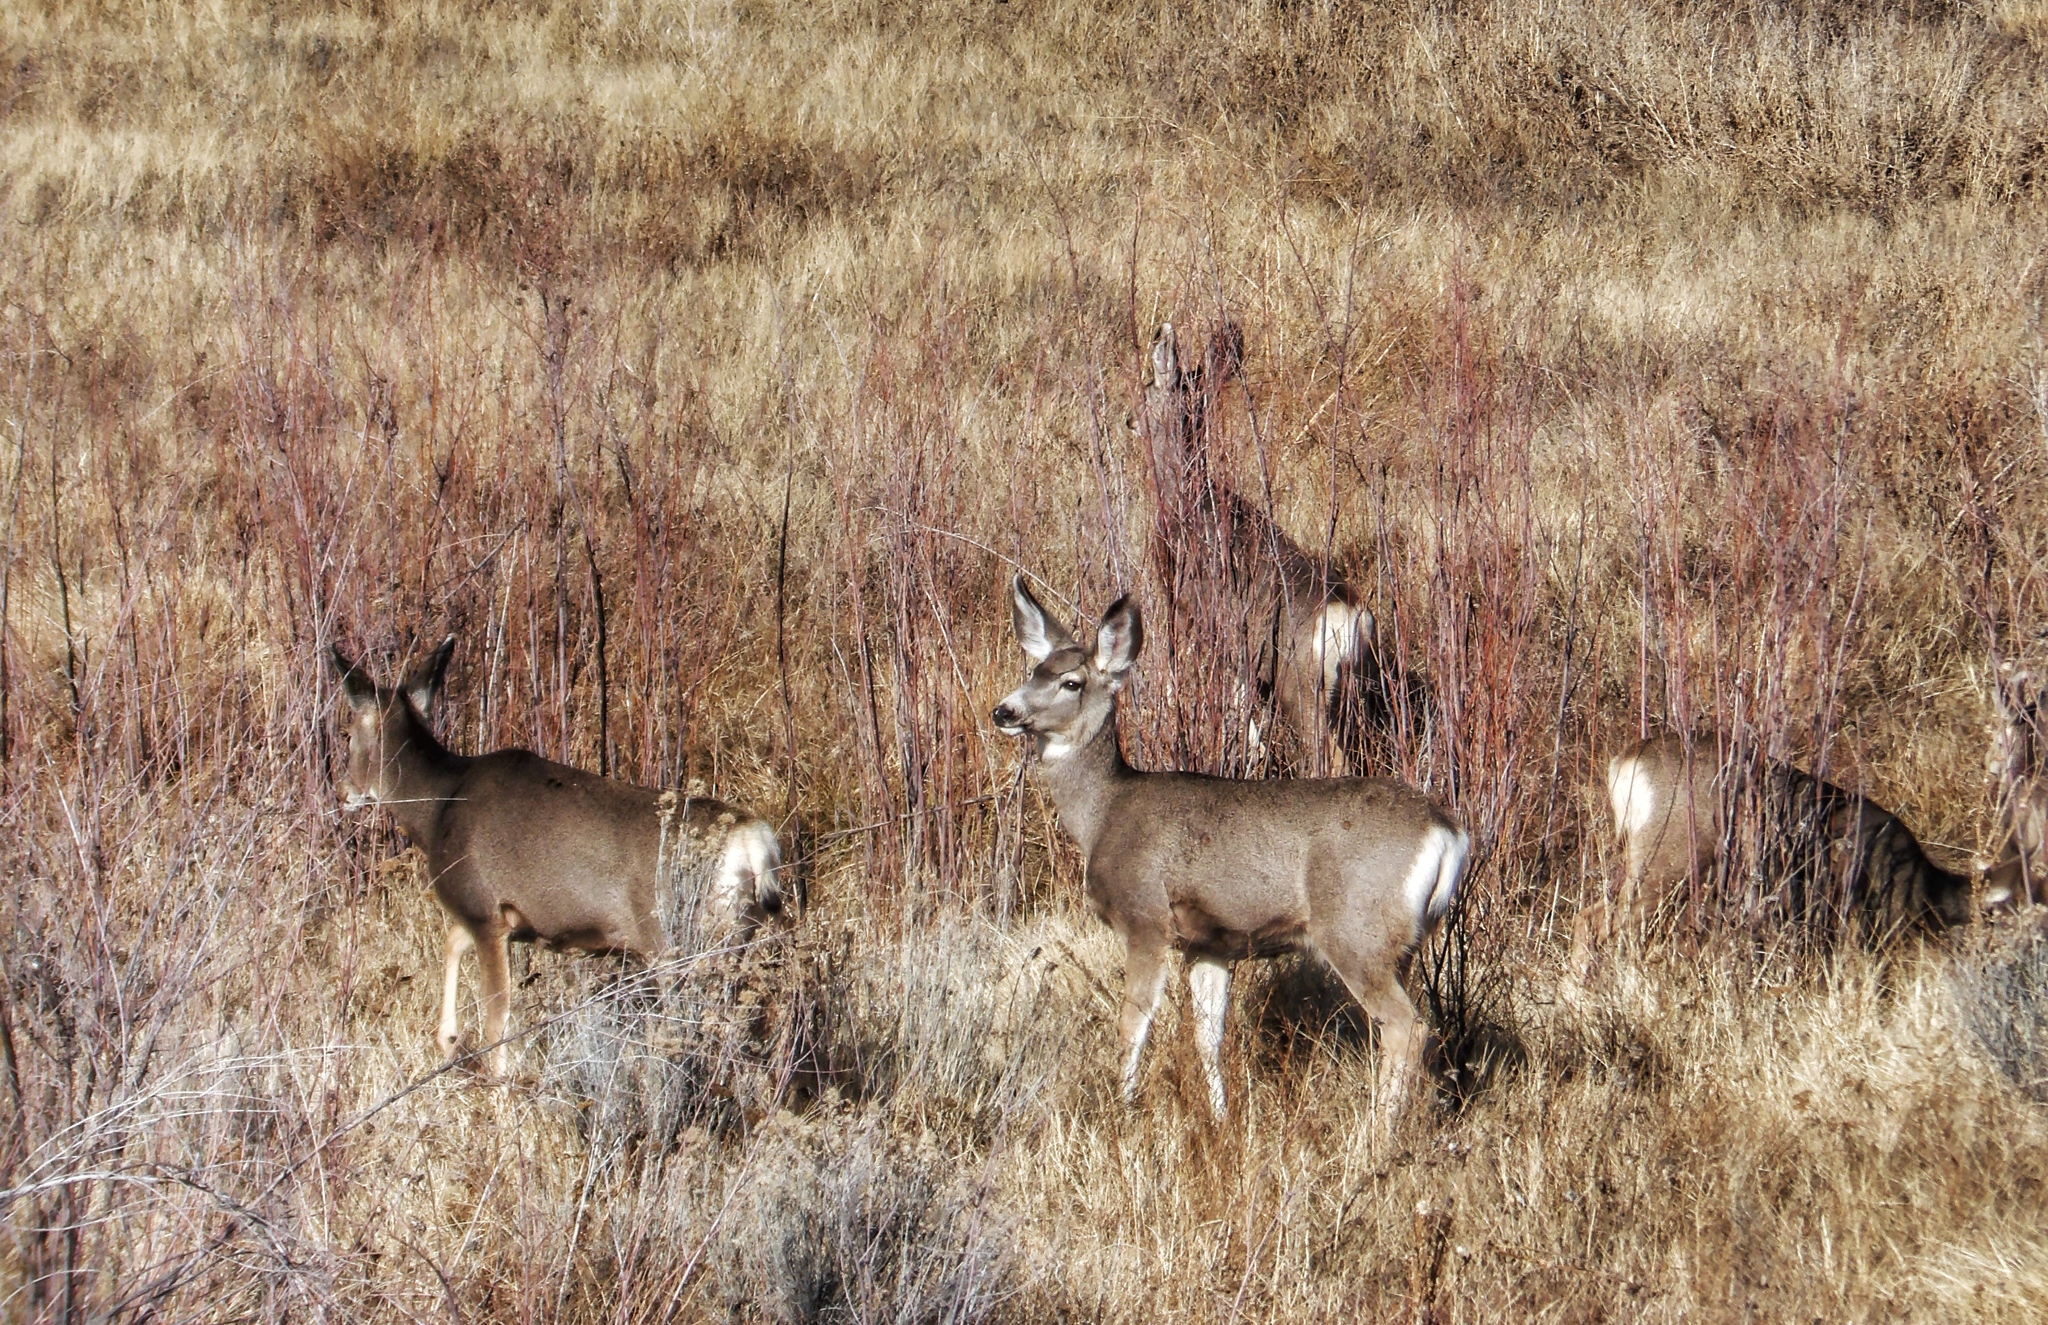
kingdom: Animalia
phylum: Chordata
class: Mammalia
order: Artiodactyla
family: Cervidae
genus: Odocoileus
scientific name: Odocoileus hemionus
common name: Mule deer
